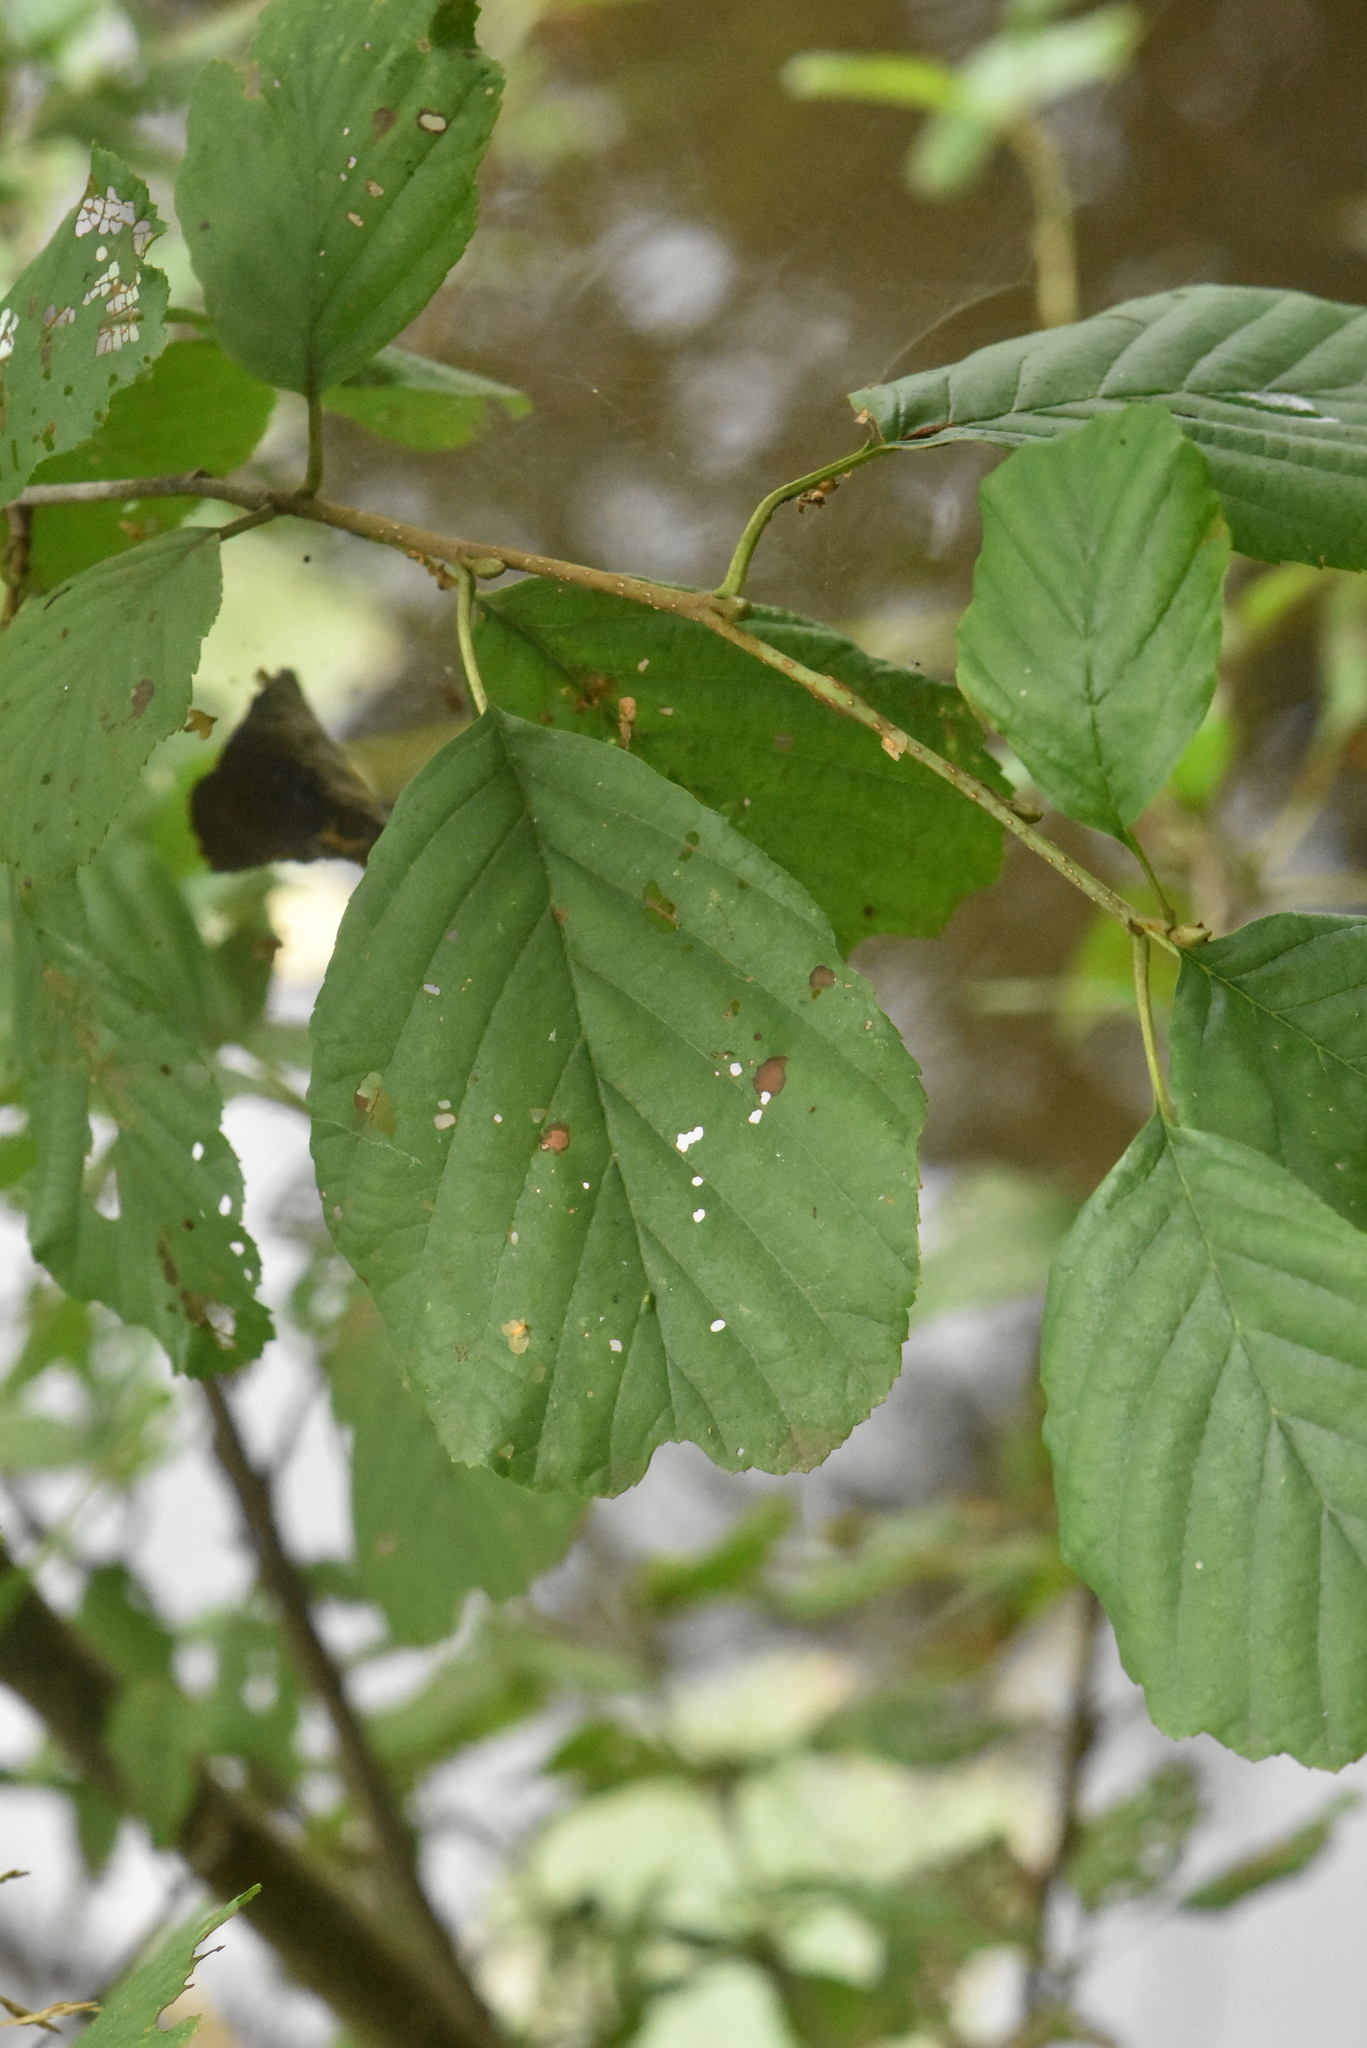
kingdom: Plantae
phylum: Tracheophyta
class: Magnoliopsida
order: Fagales
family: Betulaceae
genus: Alnus
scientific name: Alnus glutinosa
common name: Black alder
